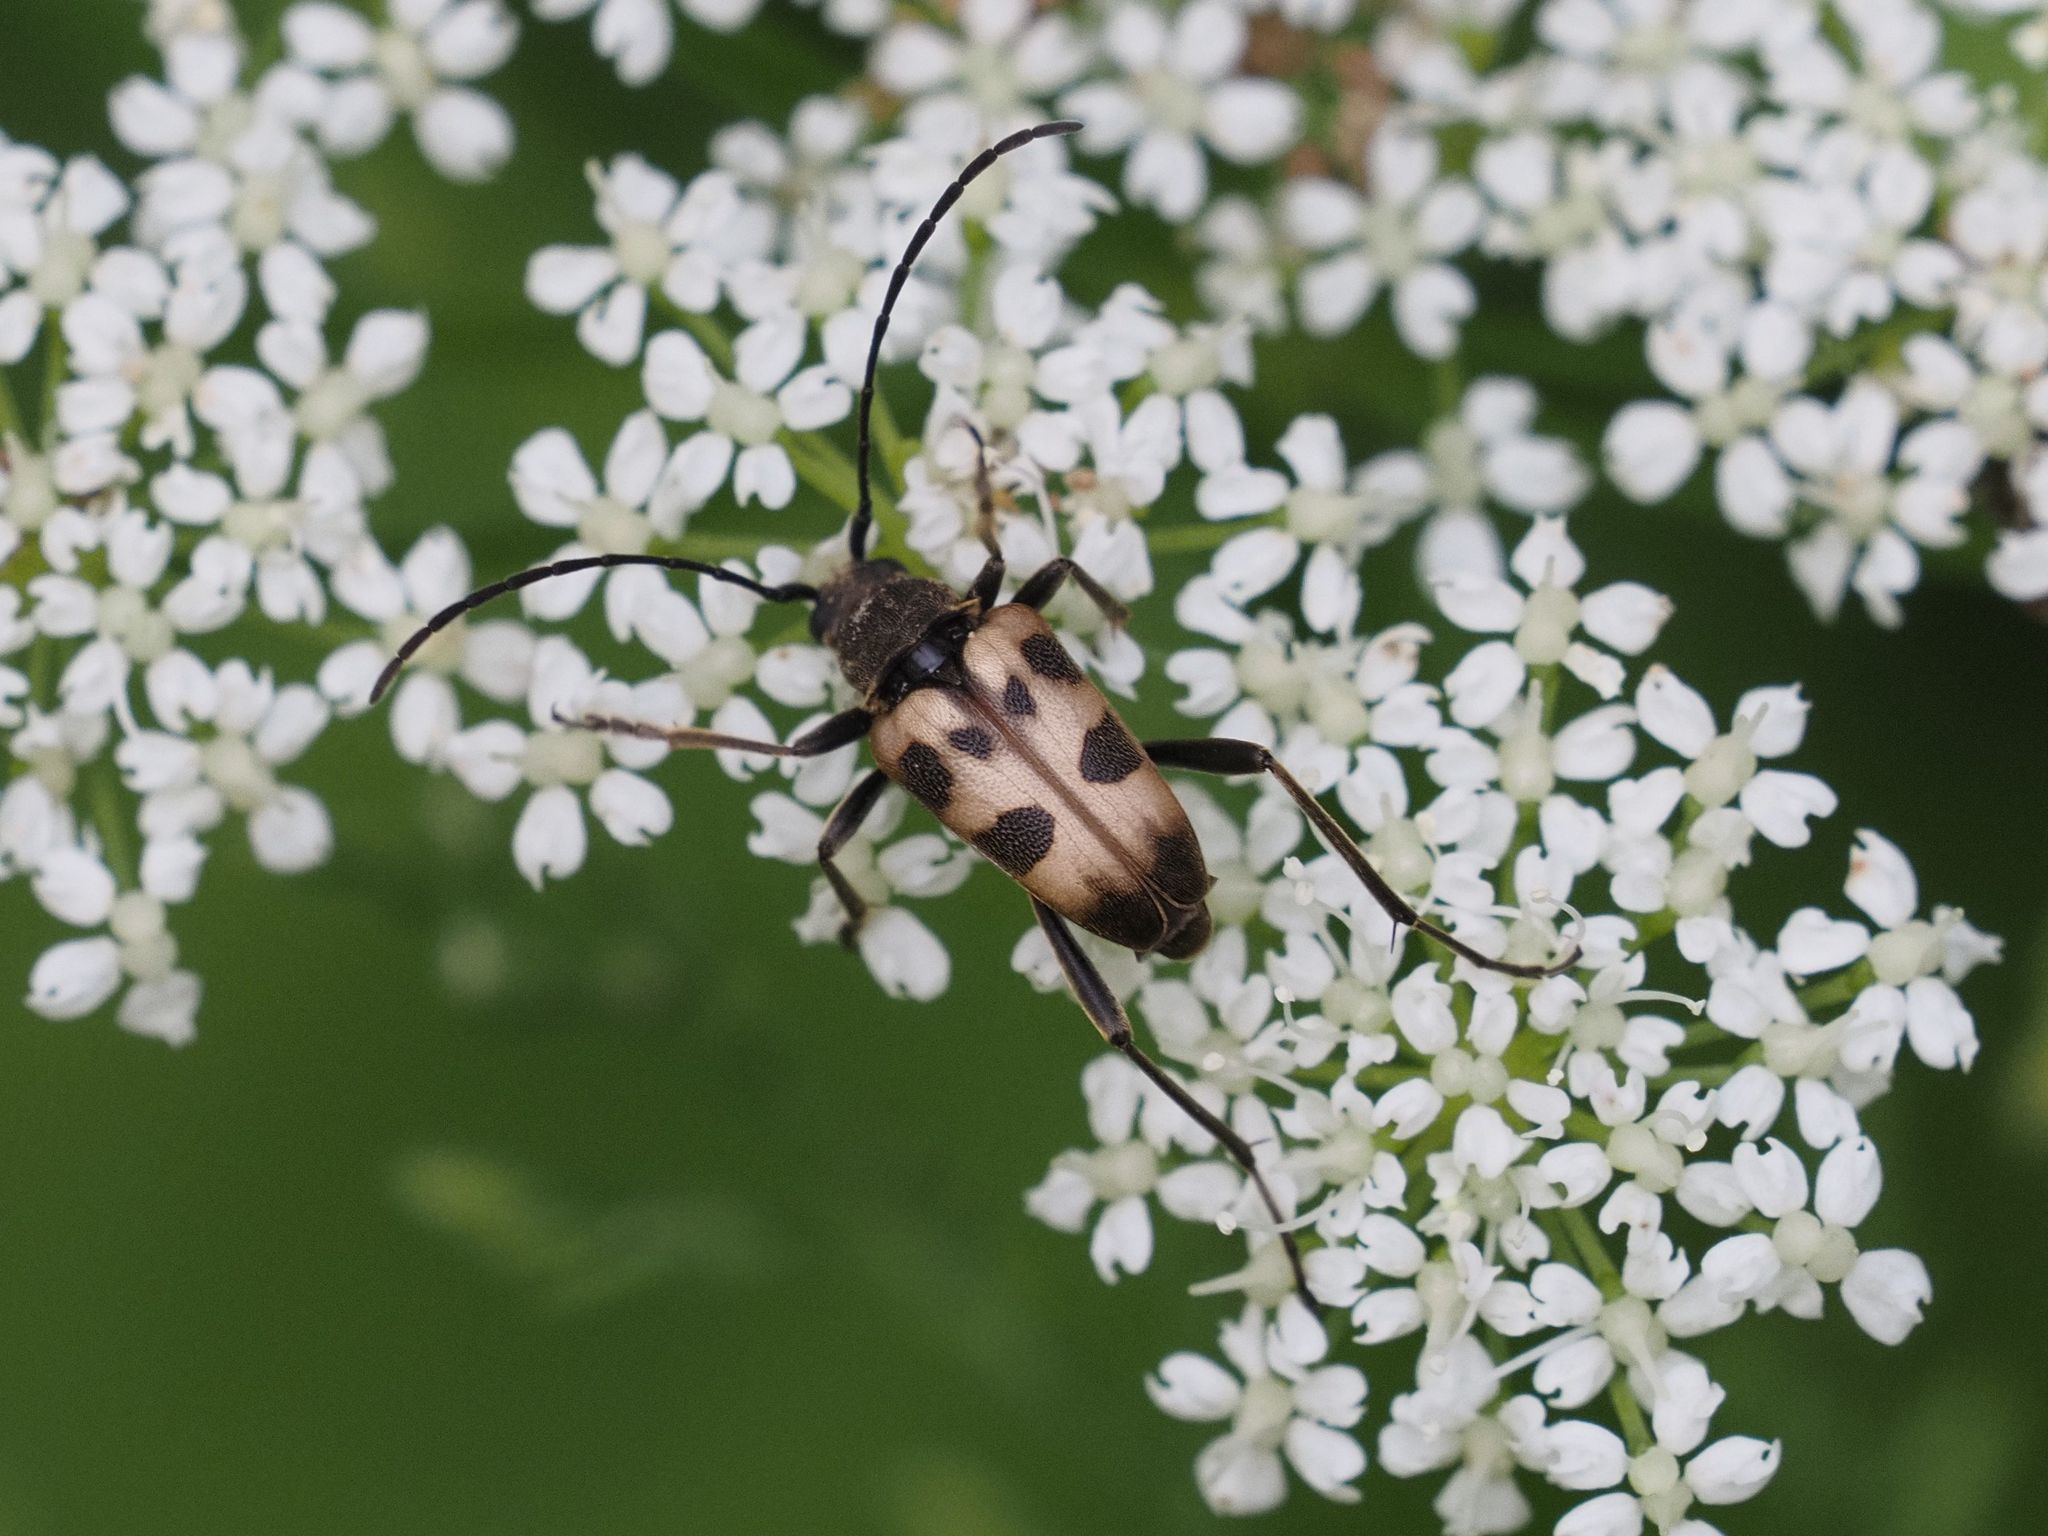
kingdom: Animalia
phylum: Arthropoda
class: Insecta
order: Coleoptera
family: Cerambycidae
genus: Pachytodes
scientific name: Pachytodes cerambyciformis
